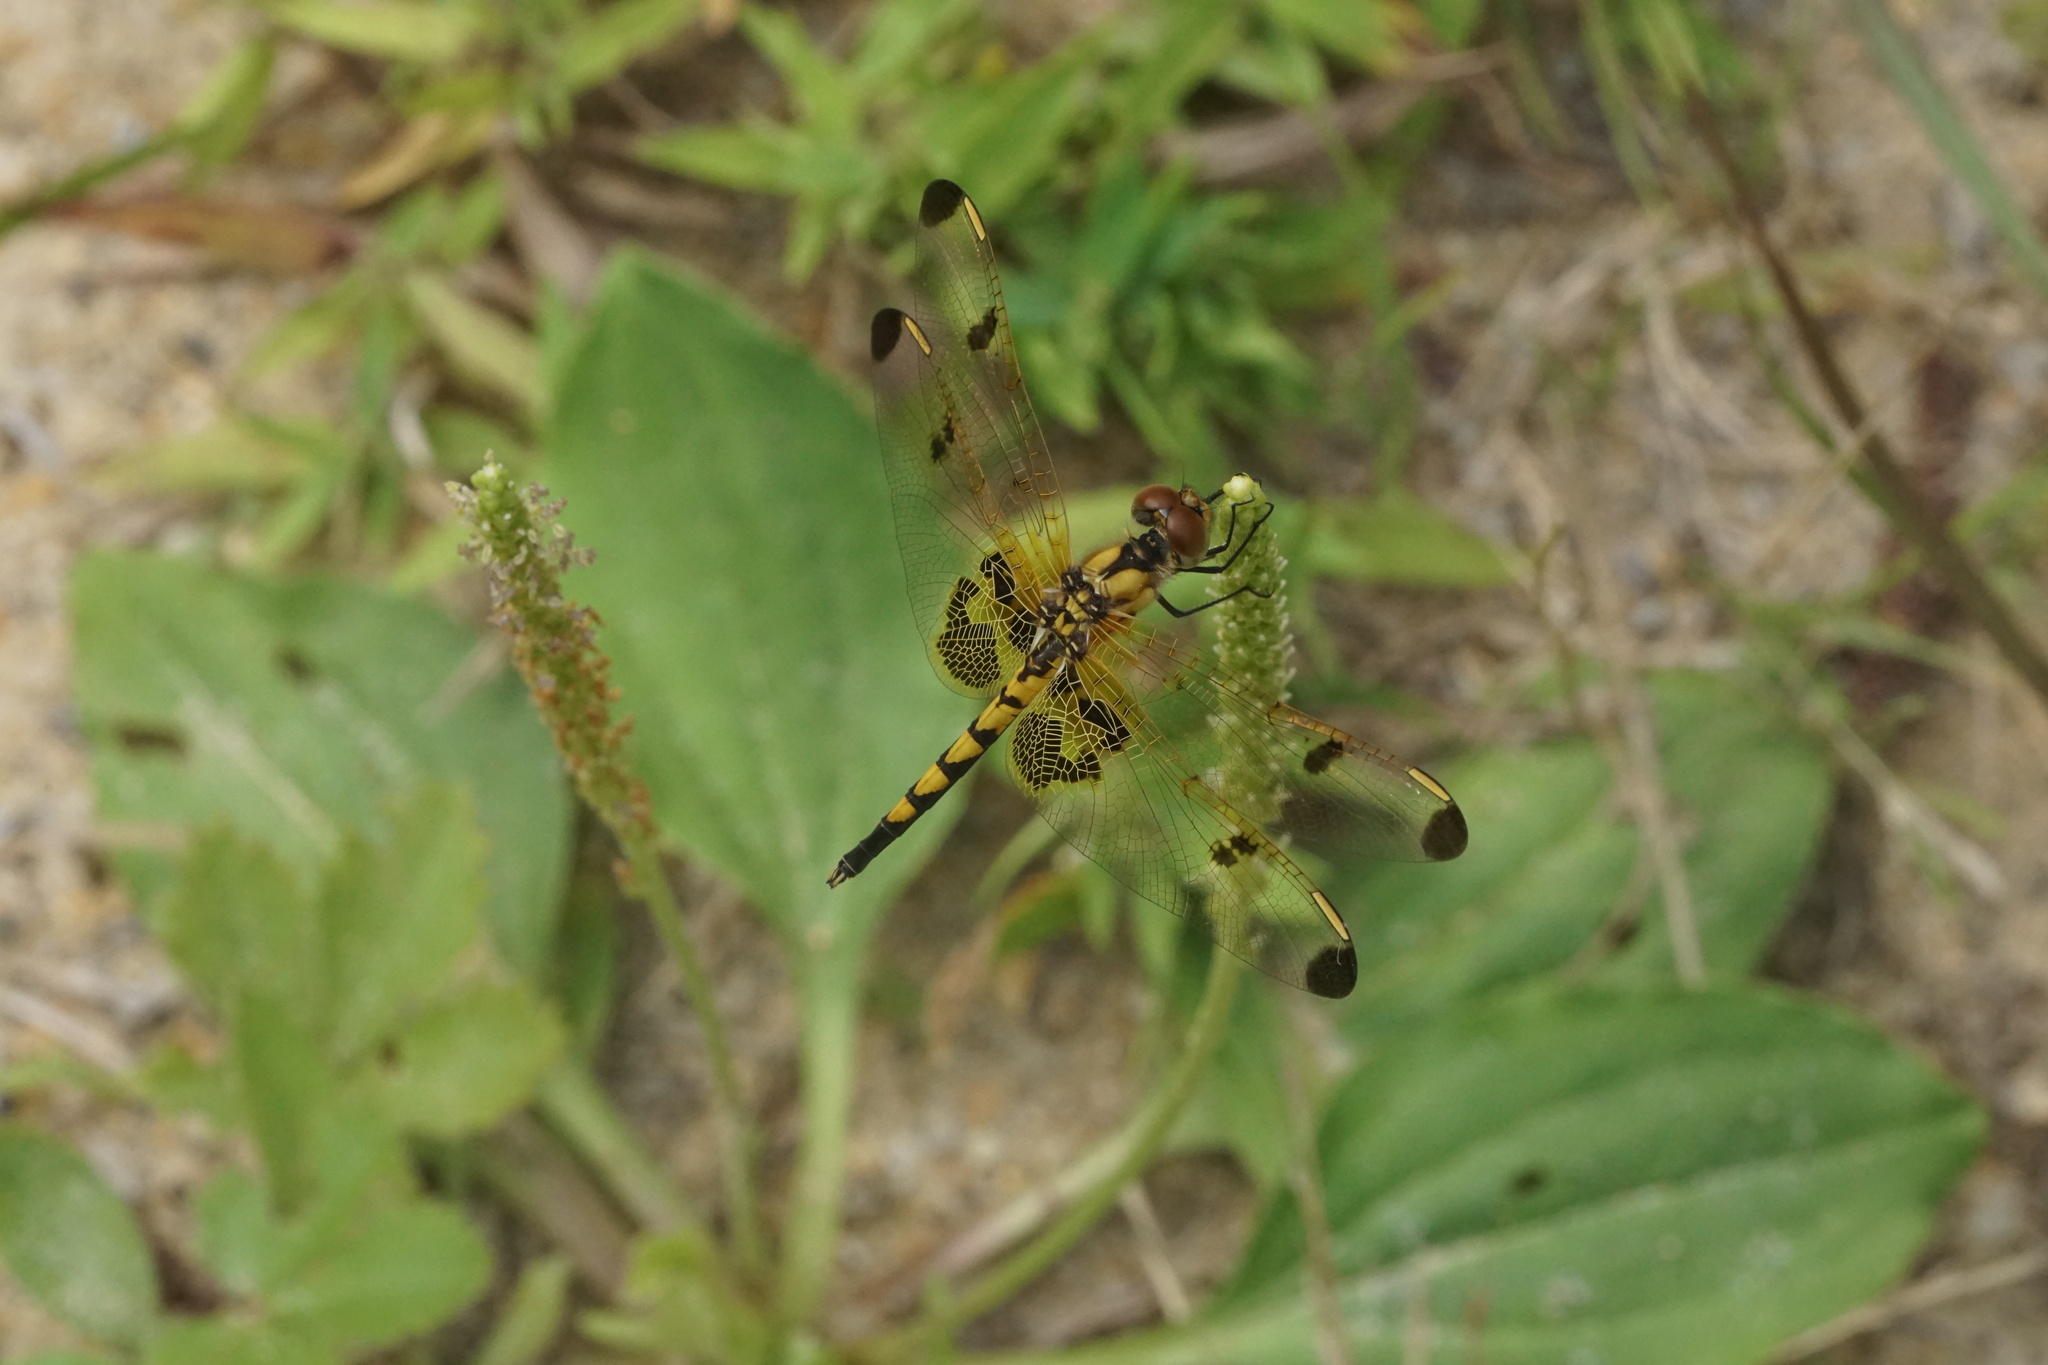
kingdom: Animalia
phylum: Arthropoda
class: Insecta
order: Odonata
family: Libellulidae
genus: Celithemis
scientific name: Celithemis elisa
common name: Calico pennant
